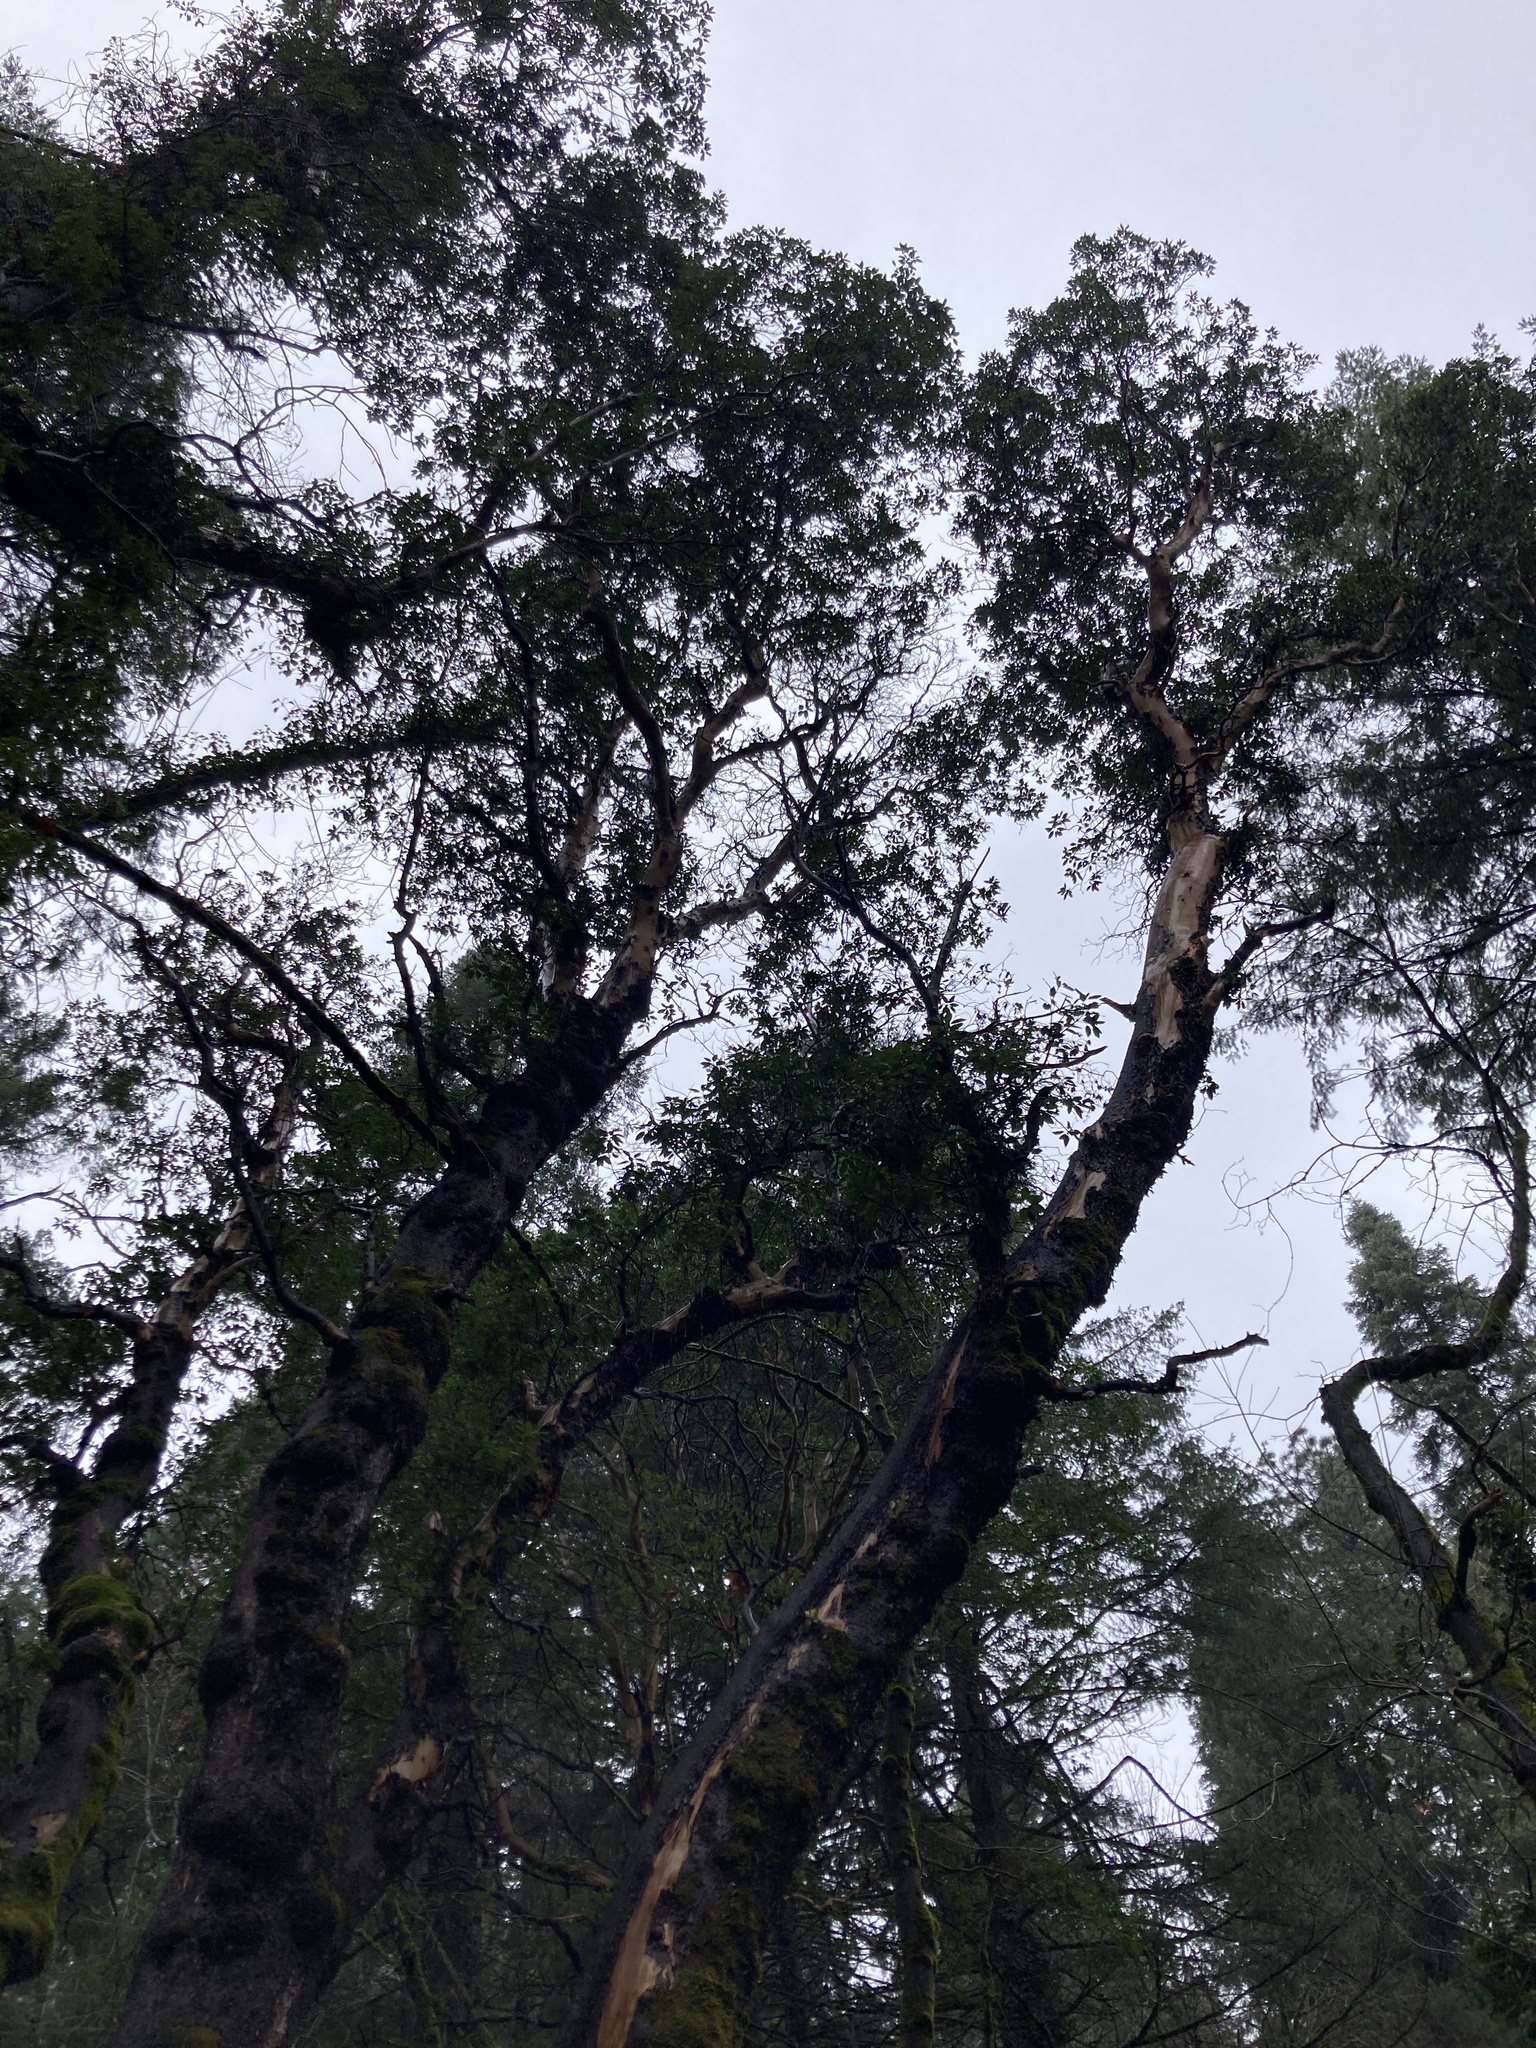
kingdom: Plantae
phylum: Tracheophyta
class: Magnoliopsida
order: Ericales
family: Ericaceae
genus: Arbutus
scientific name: Arbutus menziesii
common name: Pacific madrone
